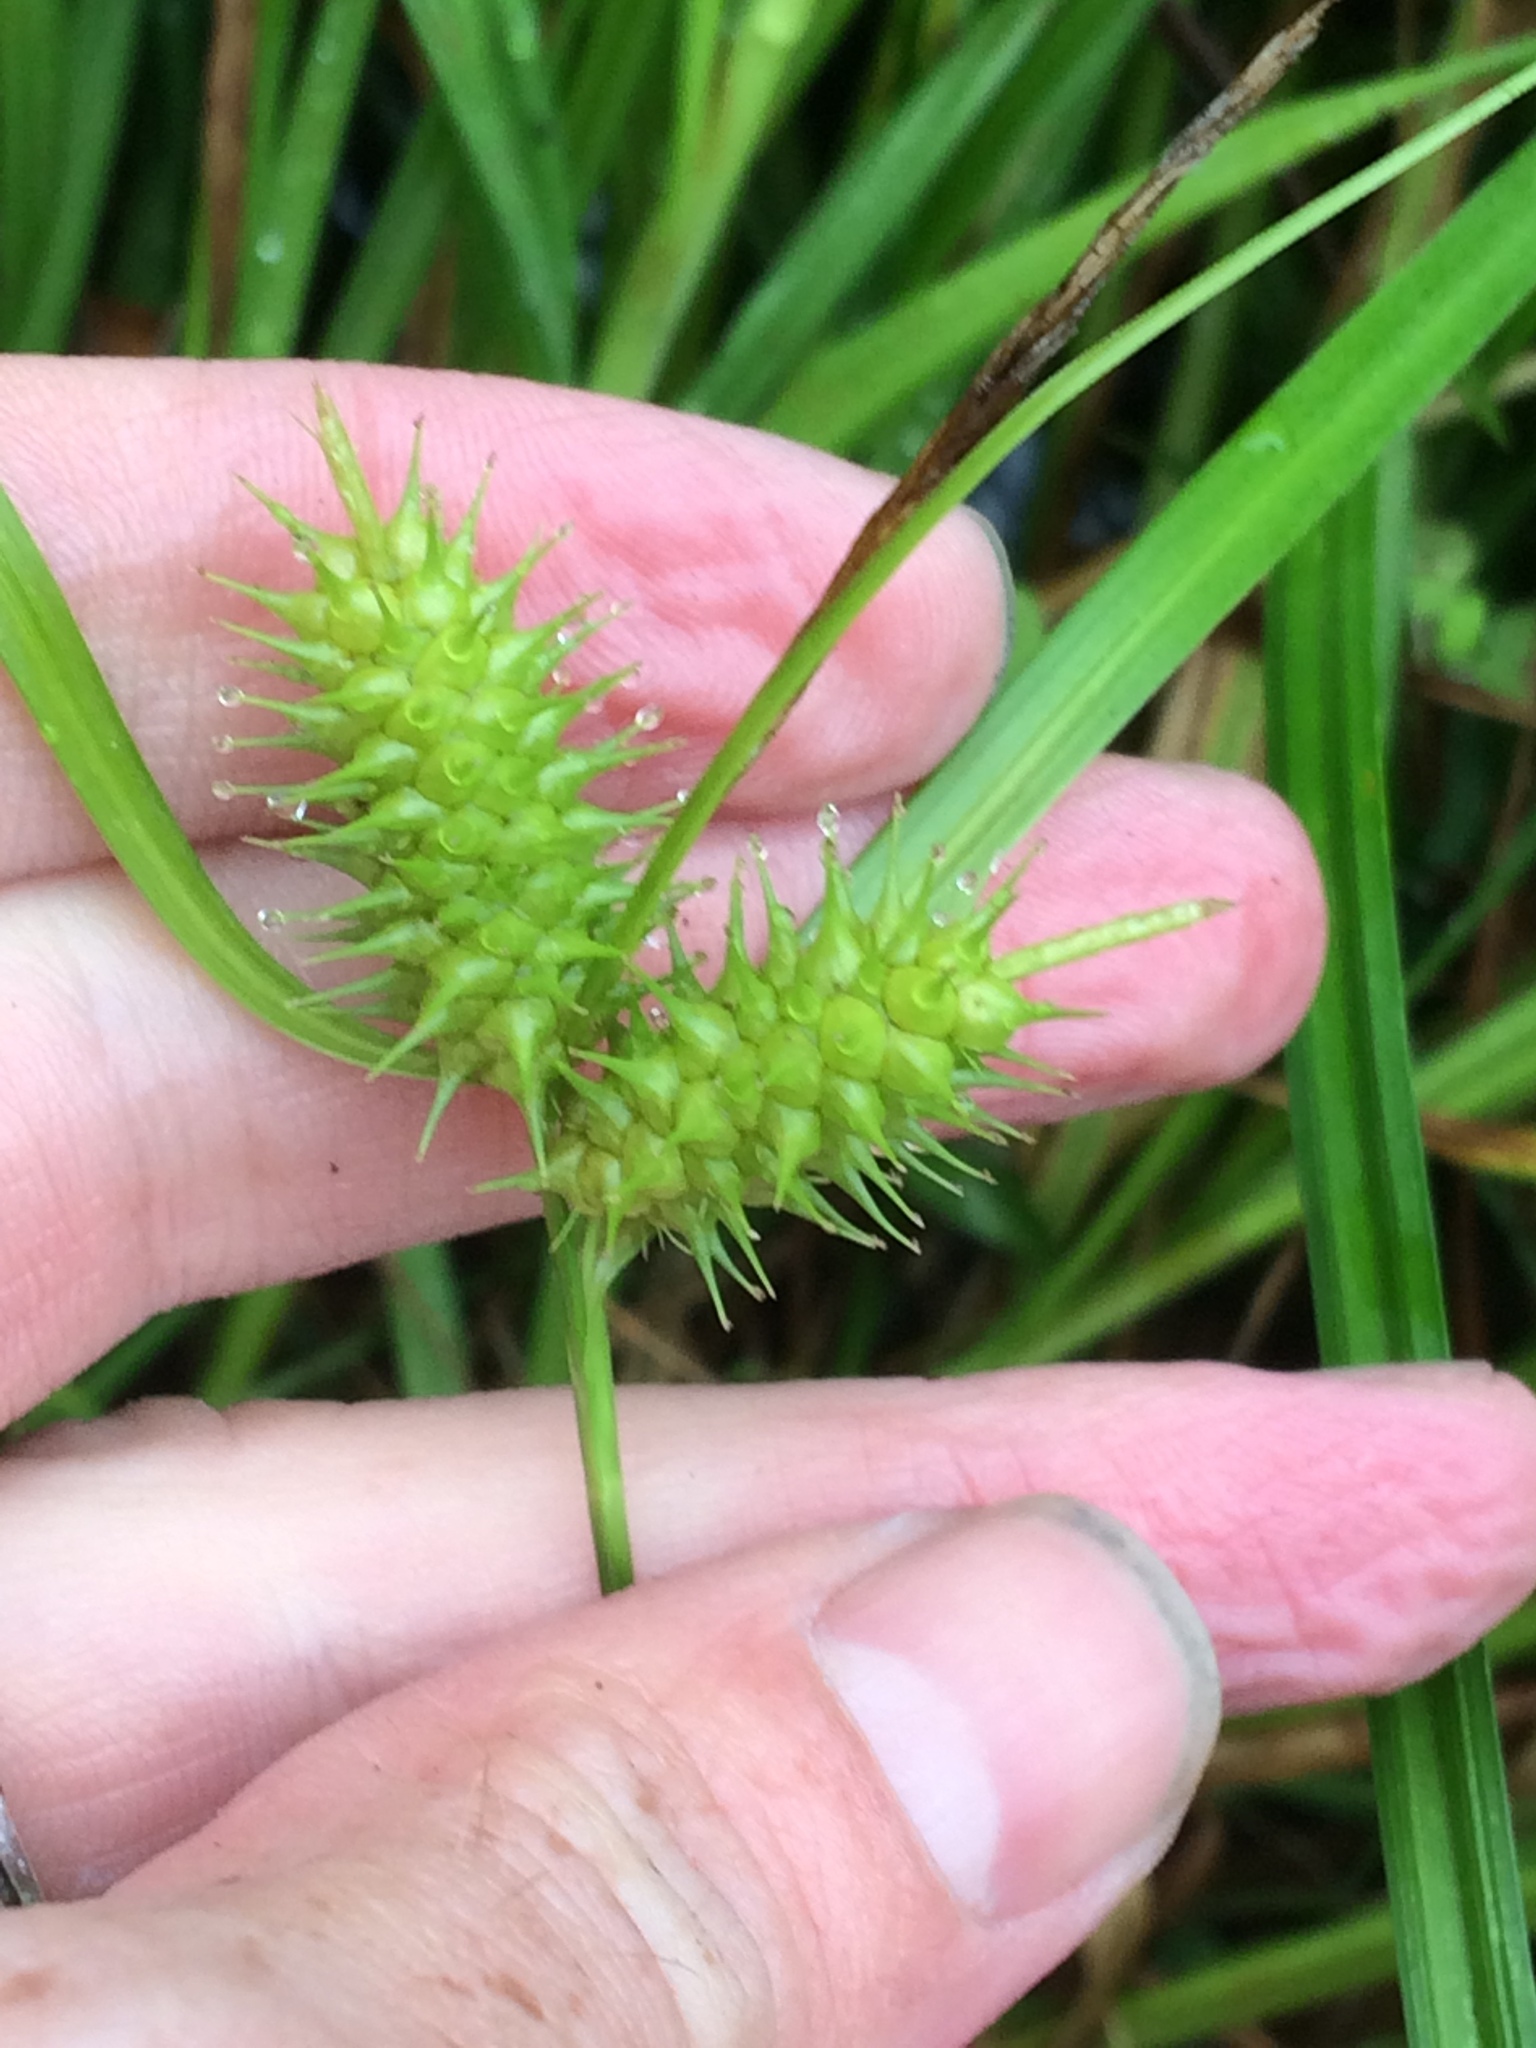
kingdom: Plantae
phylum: Tracheophyta
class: Liliopsida
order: Poales
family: Cyperaceae
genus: Carex
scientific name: Carex lurida
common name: Sallow sedge
